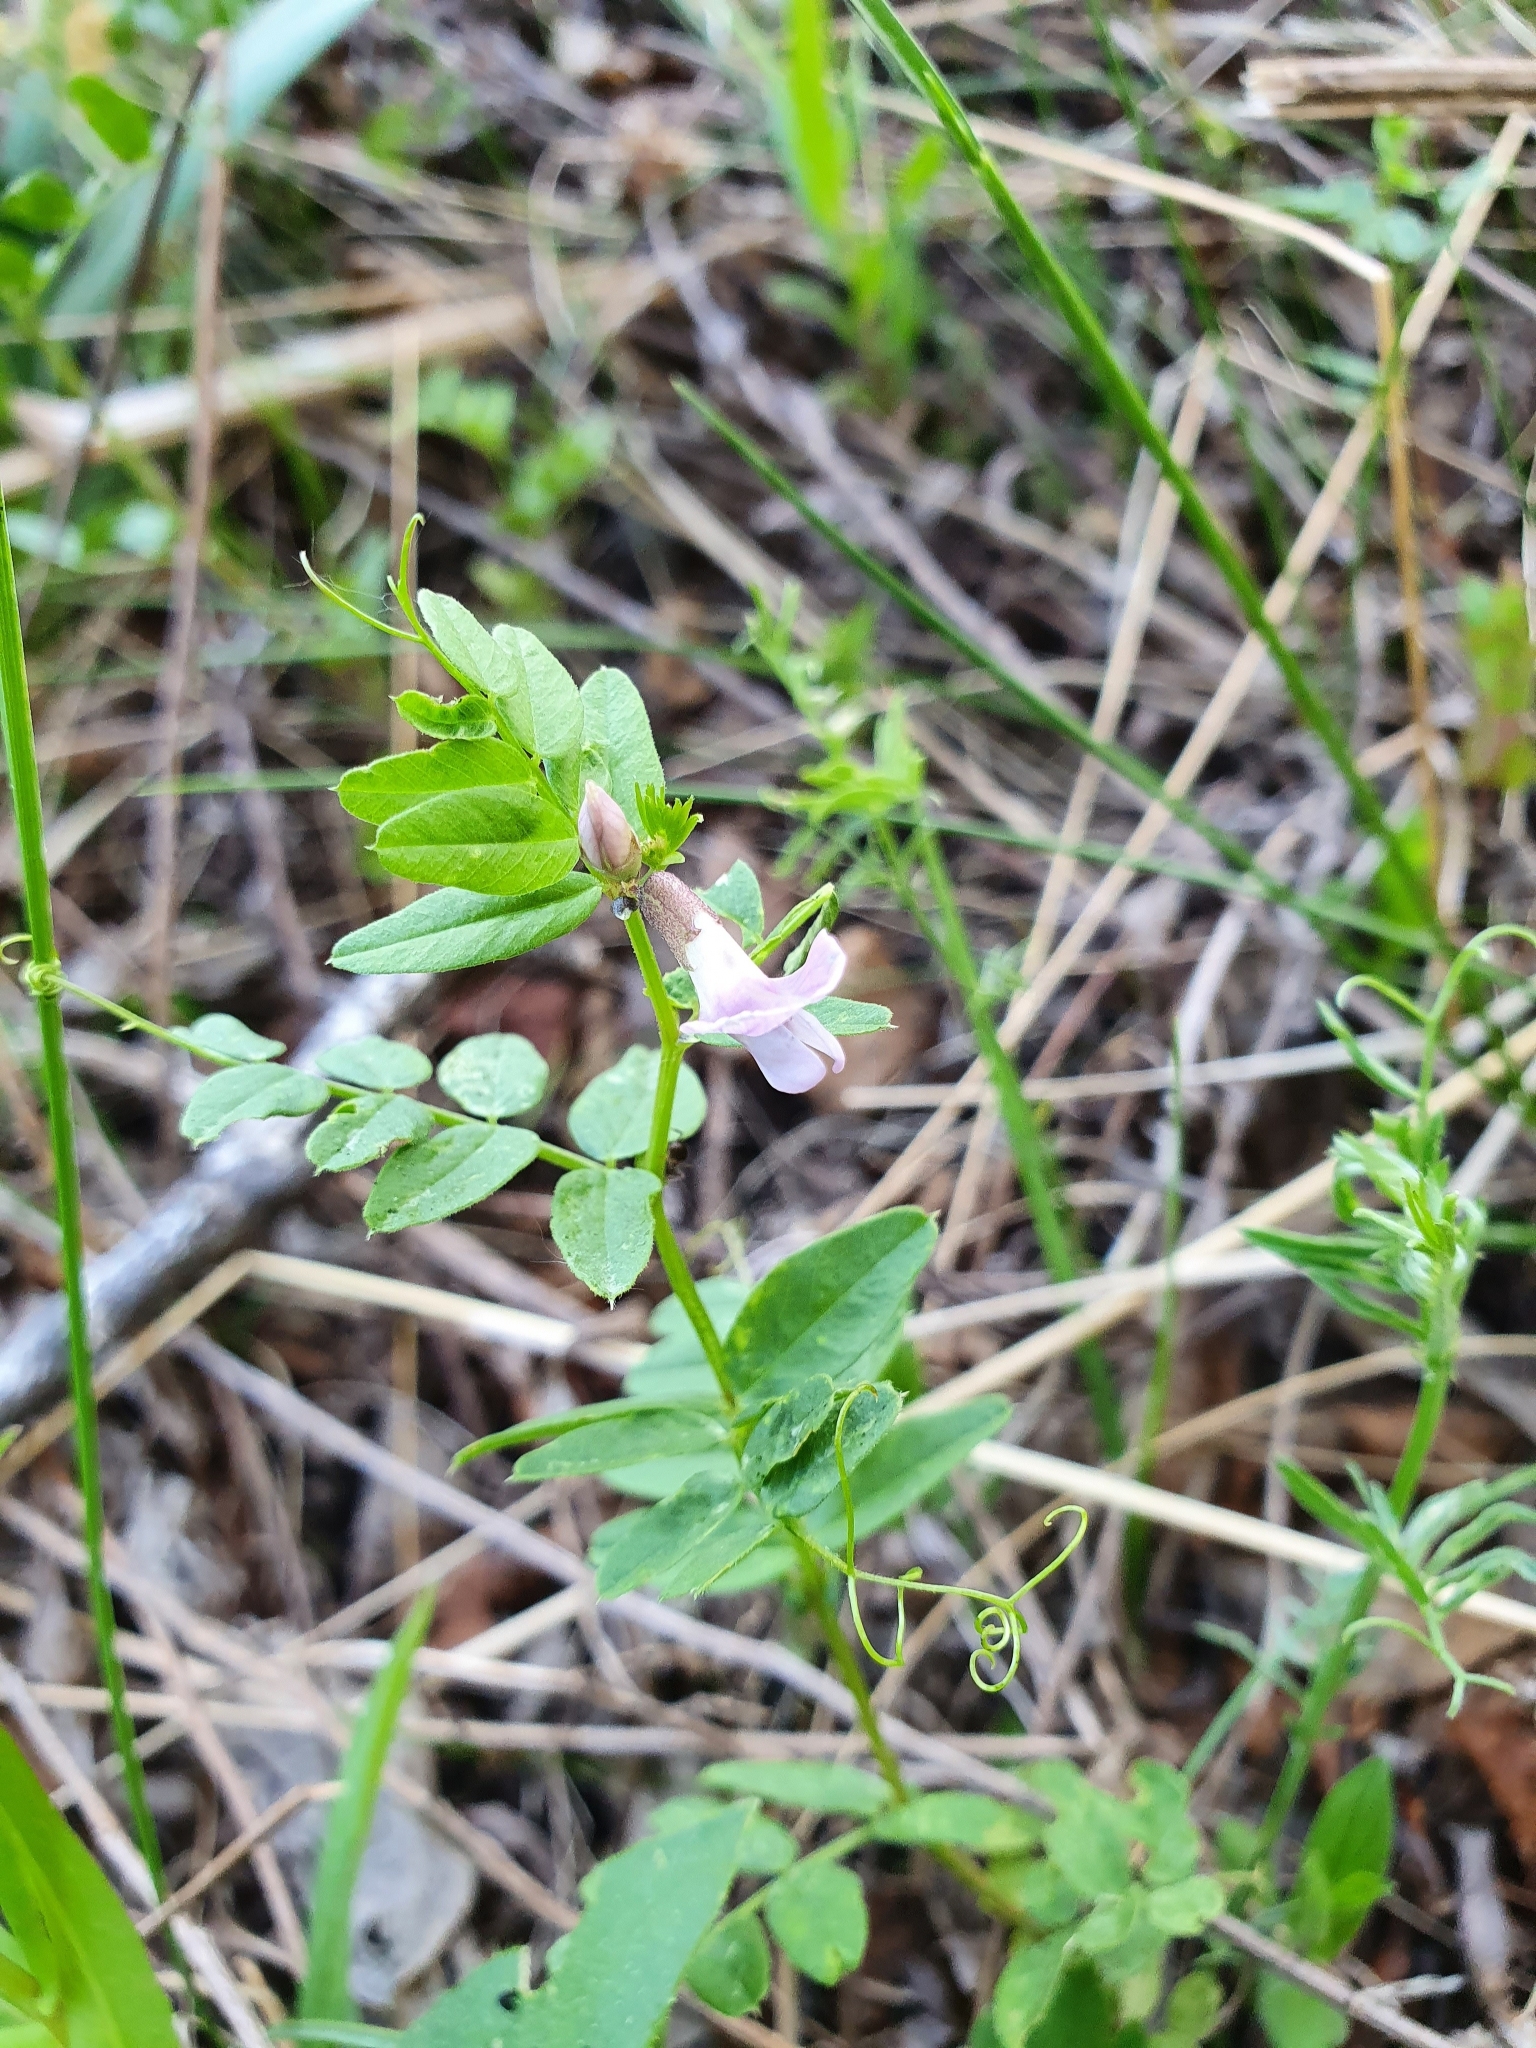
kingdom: Plantae
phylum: Tracheophyta
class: Magnoliopsida
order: Fabales
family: Fabaceae
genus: Vicia
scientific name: Vicia sepium
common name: Bush vetch
